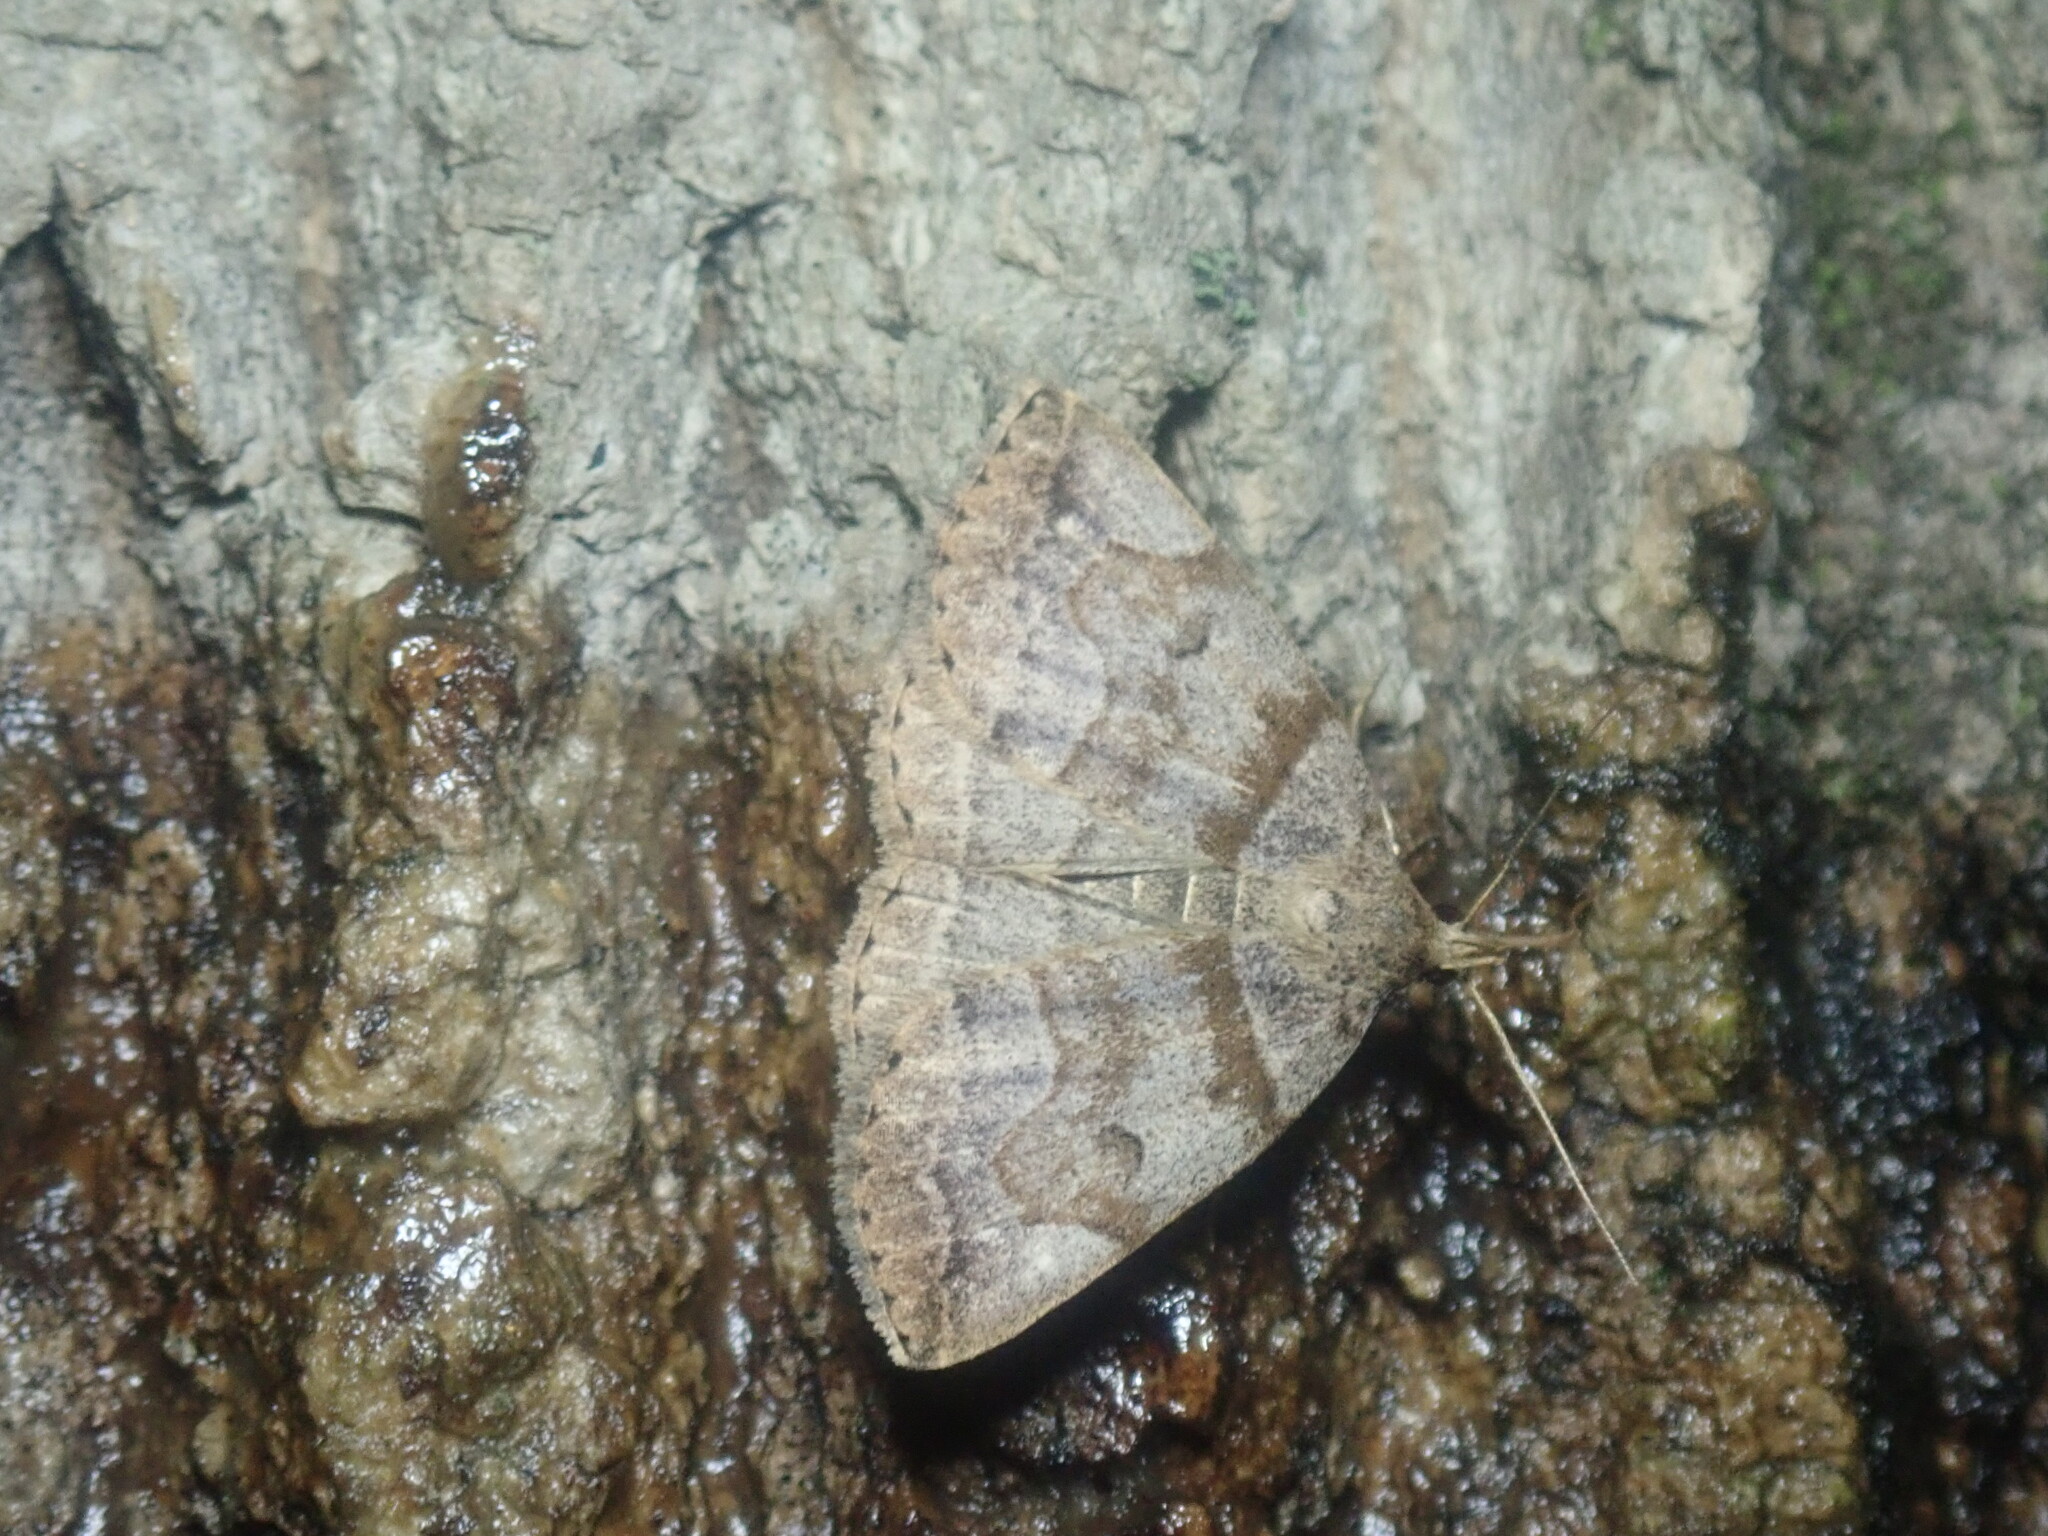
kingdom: Animalia
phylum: Arthropoda
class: Insecta
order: Lepidoptera
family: Erebidae
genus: Zanclognatha
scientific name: Zanclognatha laevigata
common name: Variable fan-foot
